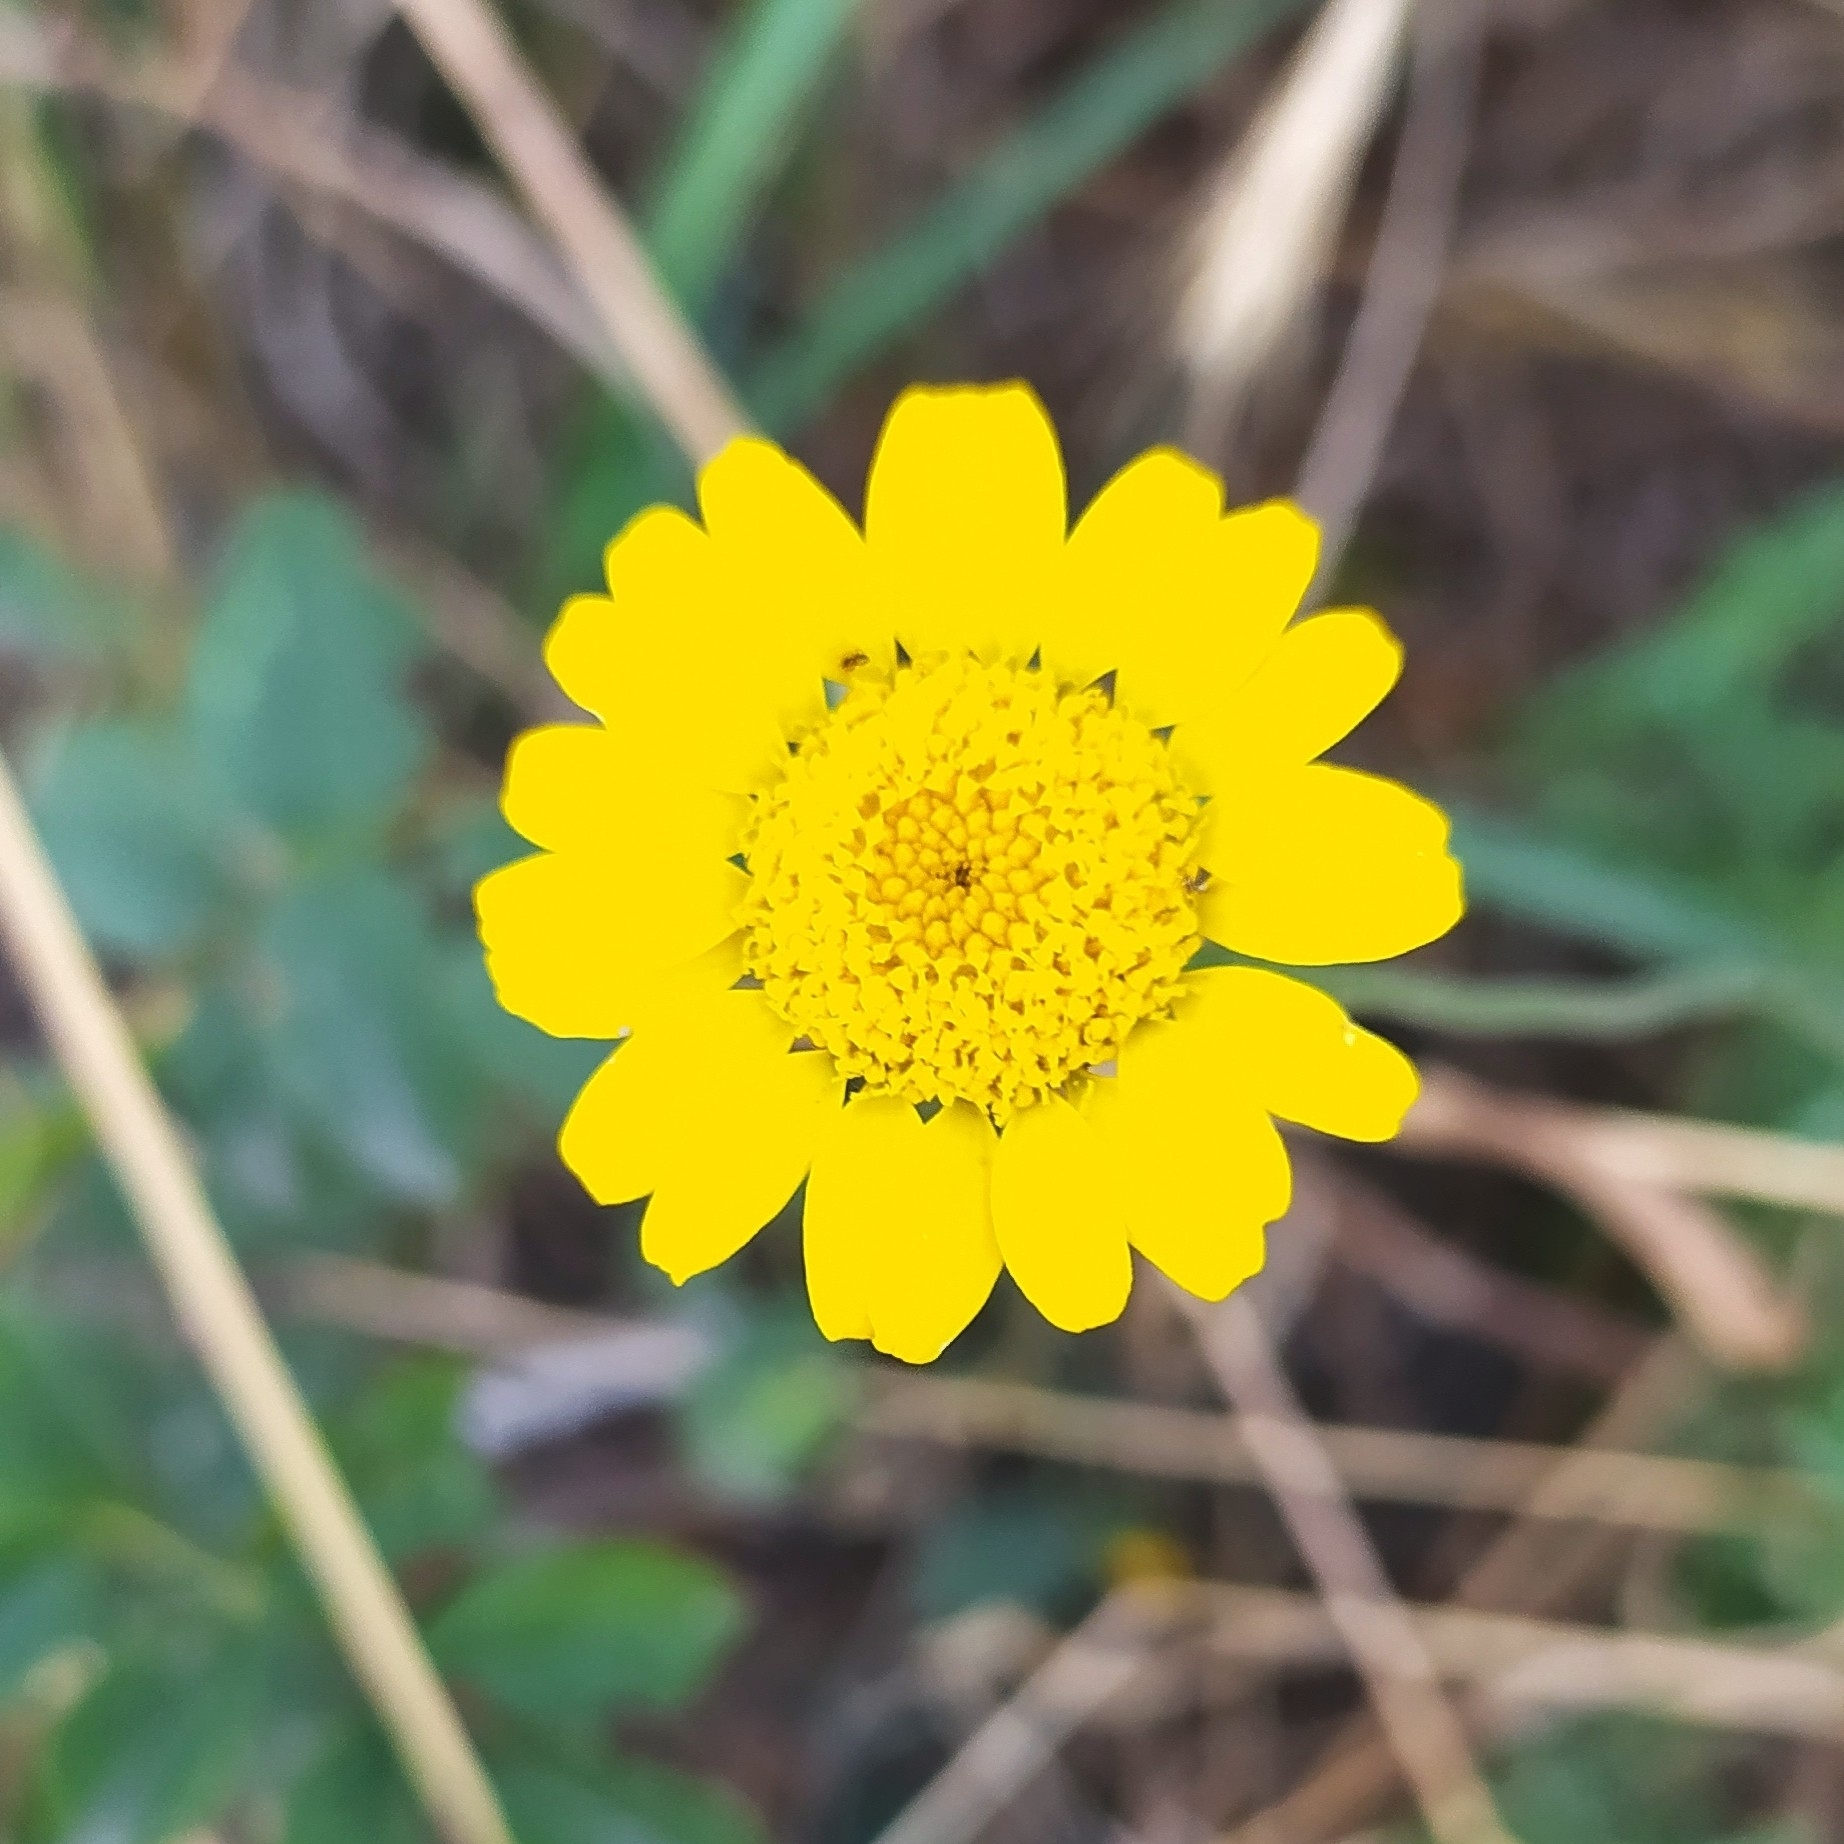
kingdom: Plantae
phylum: Tracheophyta
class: Magnoliopsida
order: Asterales
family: Asteraceae
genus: Cota
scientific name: Cota tinctoria
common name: Golden chamomile
